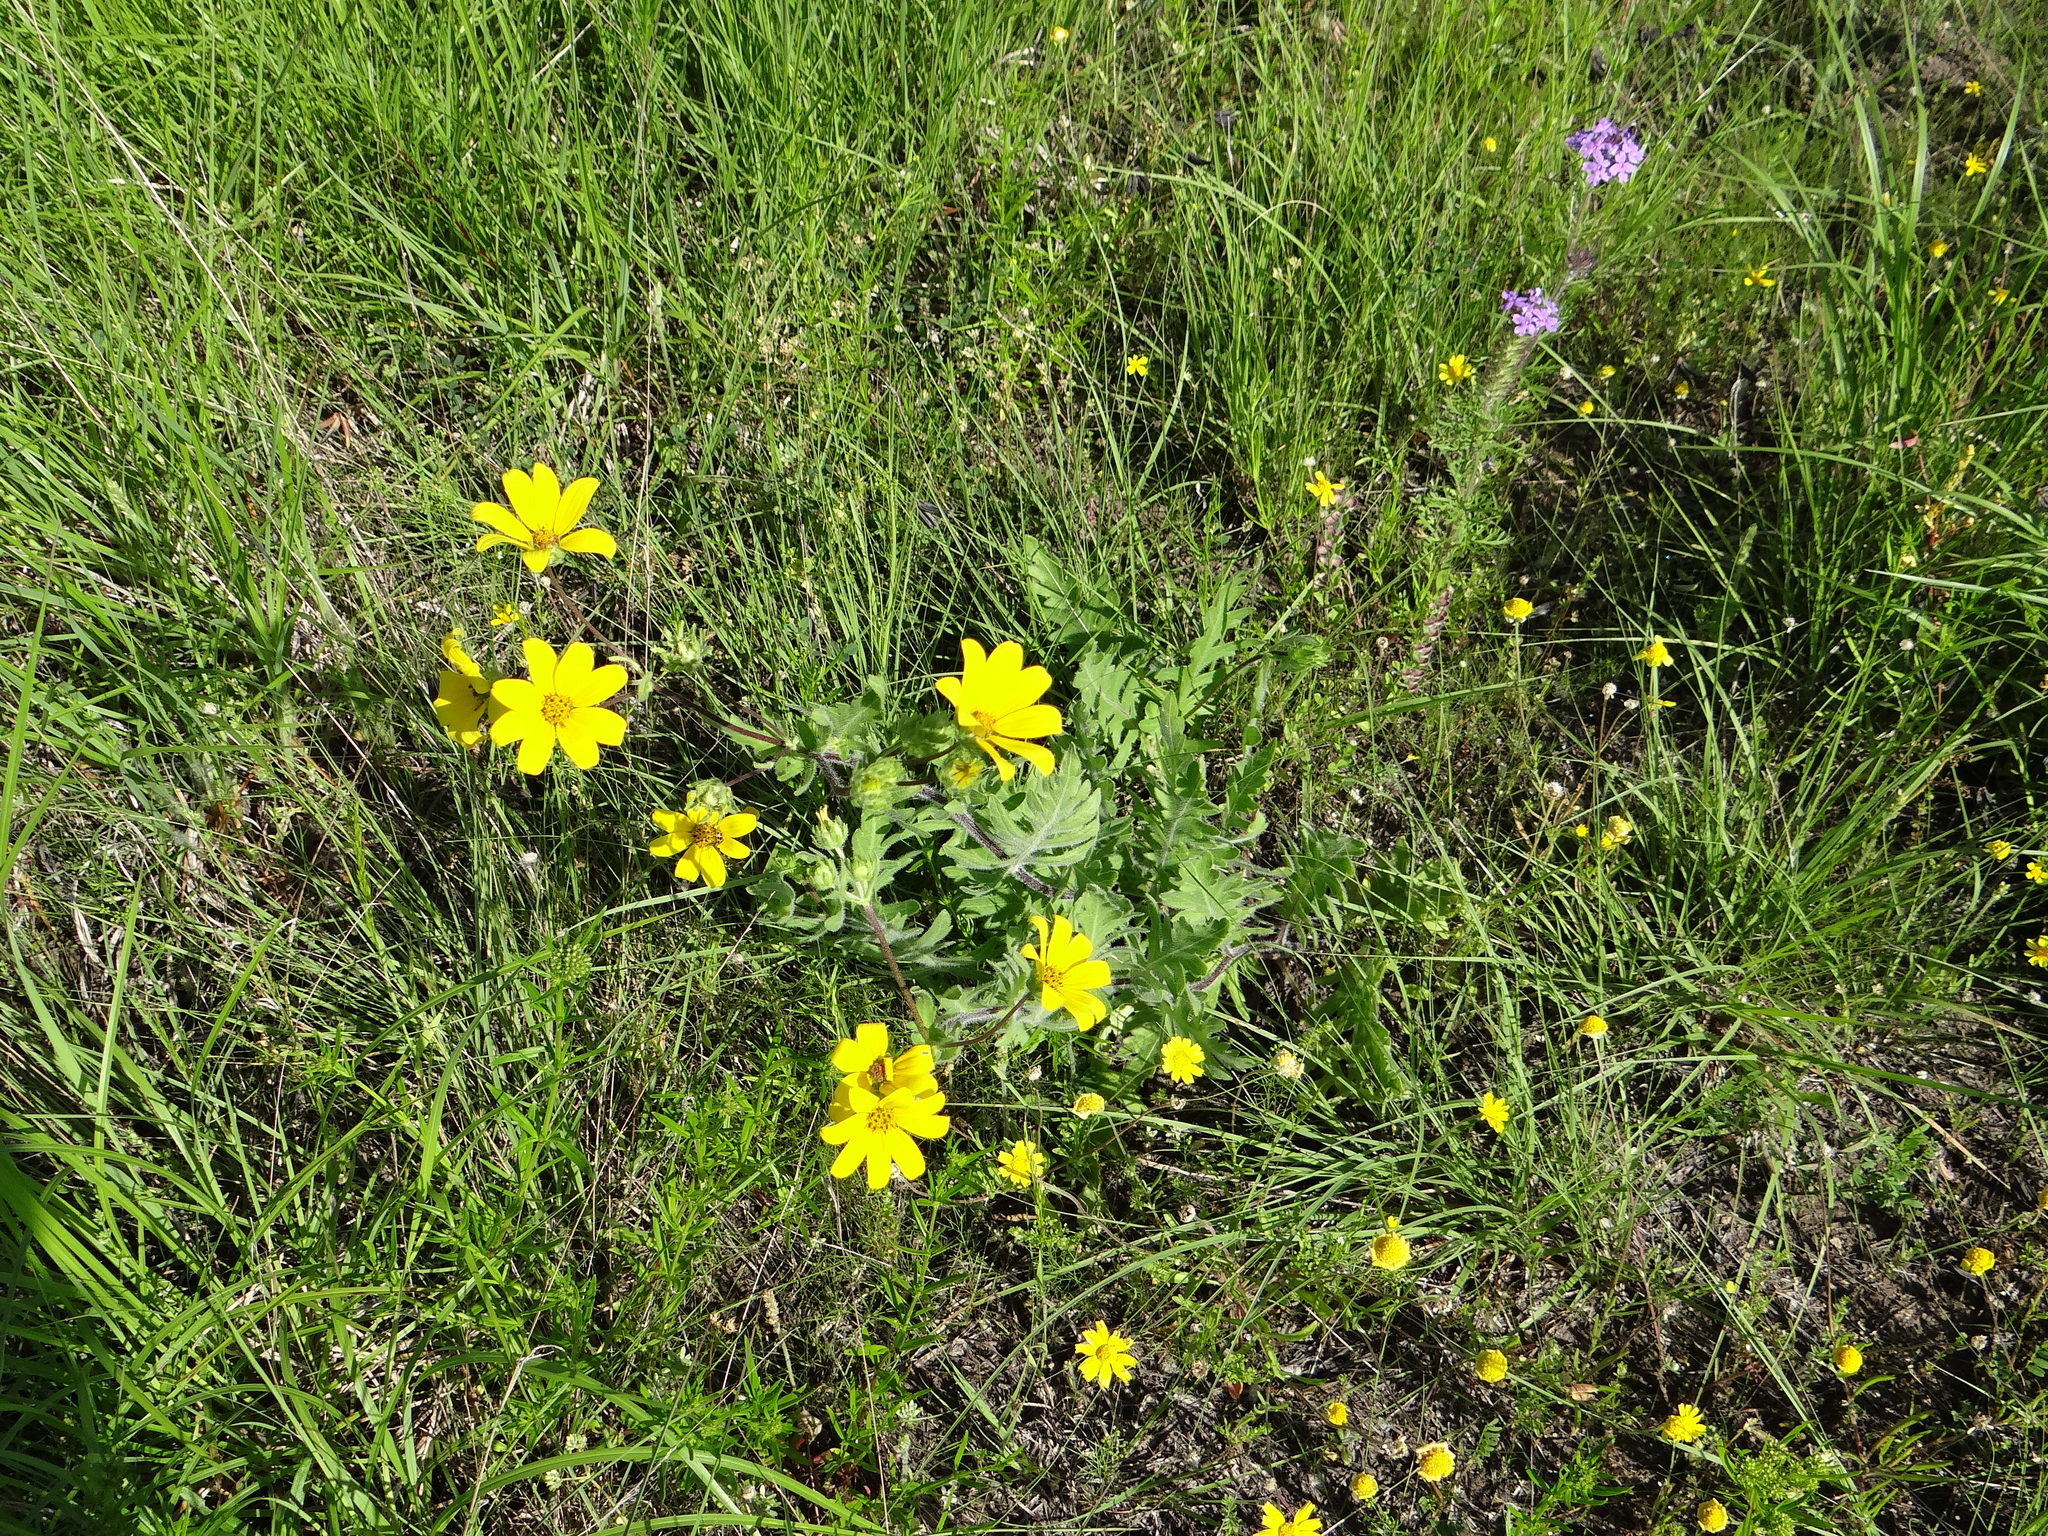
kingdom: Plantae
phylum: Tracheophyta
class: Magnoliopsida
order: Asterales
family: Asteraceae
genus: Engelmannia
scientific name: Engelmannia peristenia
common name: Engelmann's daisy
